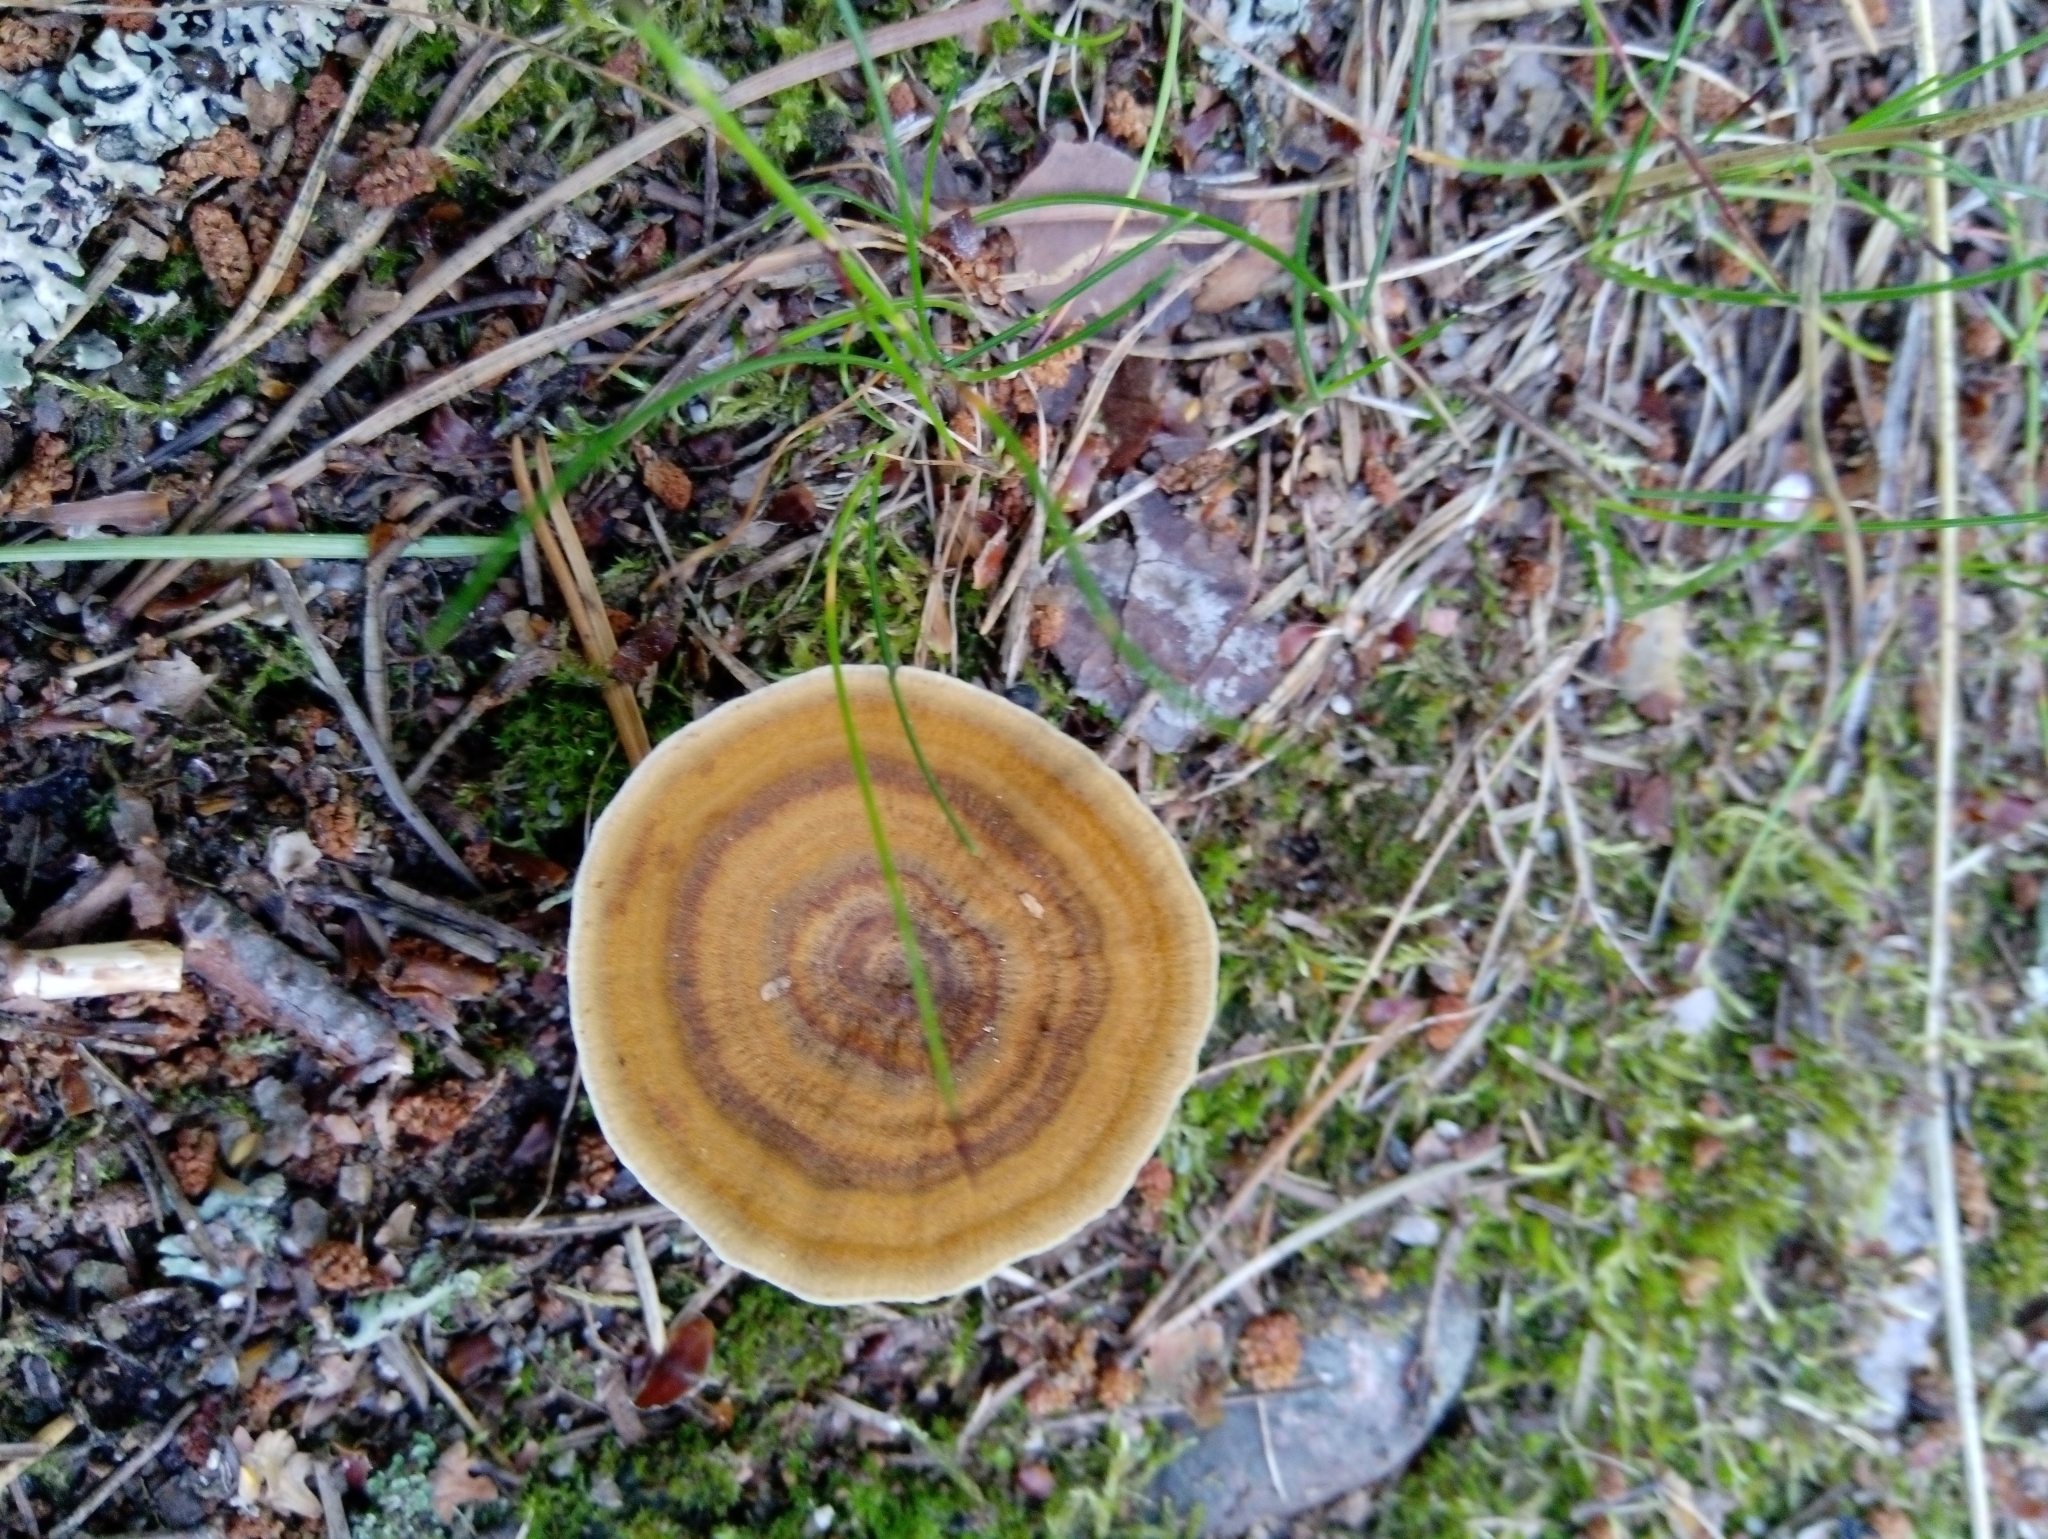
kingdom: Fungi
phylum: Basidiomycota
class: Agaricomycetes
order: Hymenochaetales
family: Hymenochaetaceae
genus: Coltricia
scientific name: Coltricia perennis
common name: Tiger's eye
